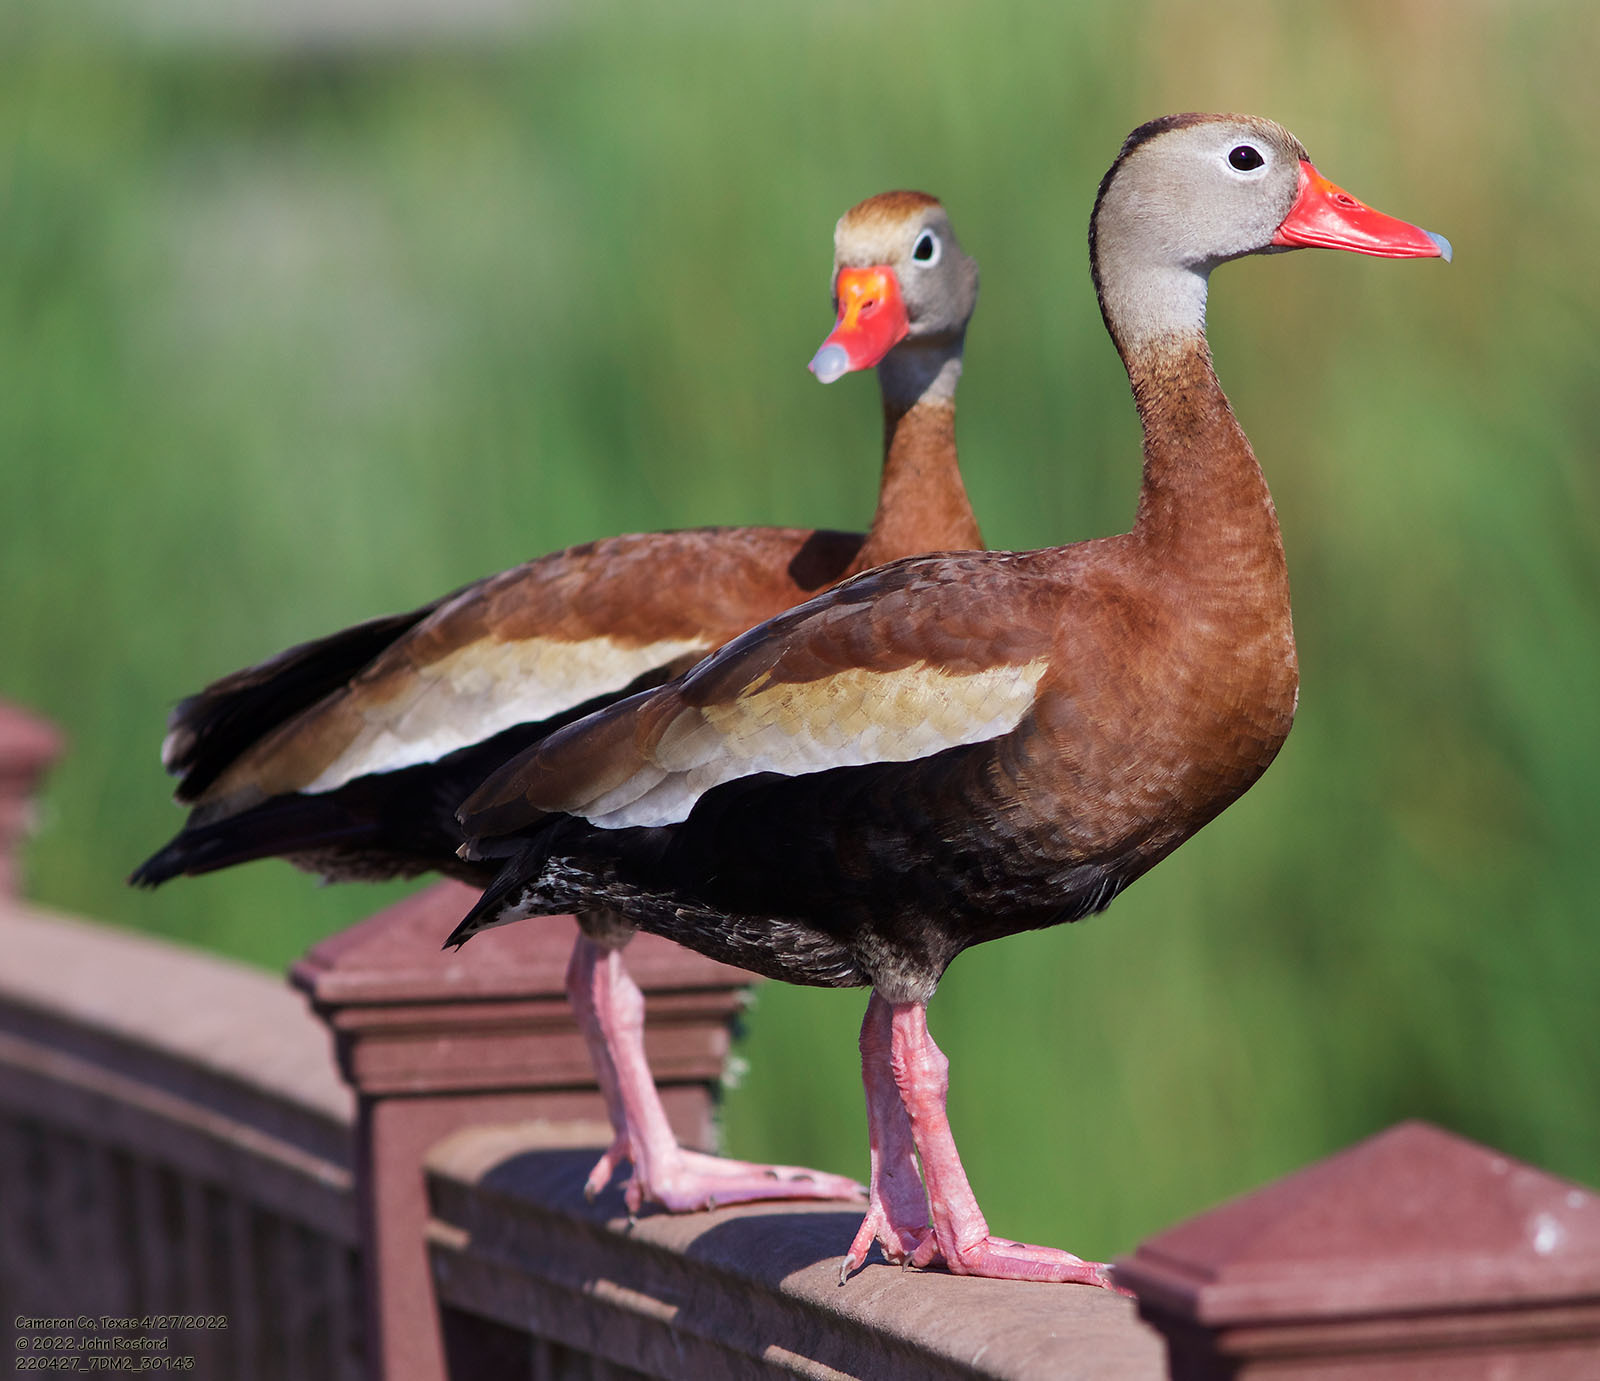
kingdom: Animalia
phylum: Chordata
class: Aves
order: Anseriformes
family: Anatidae
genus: Dendrocygna
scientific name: Dendrocygna autumnalis
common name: Black-bellied whistling duck
